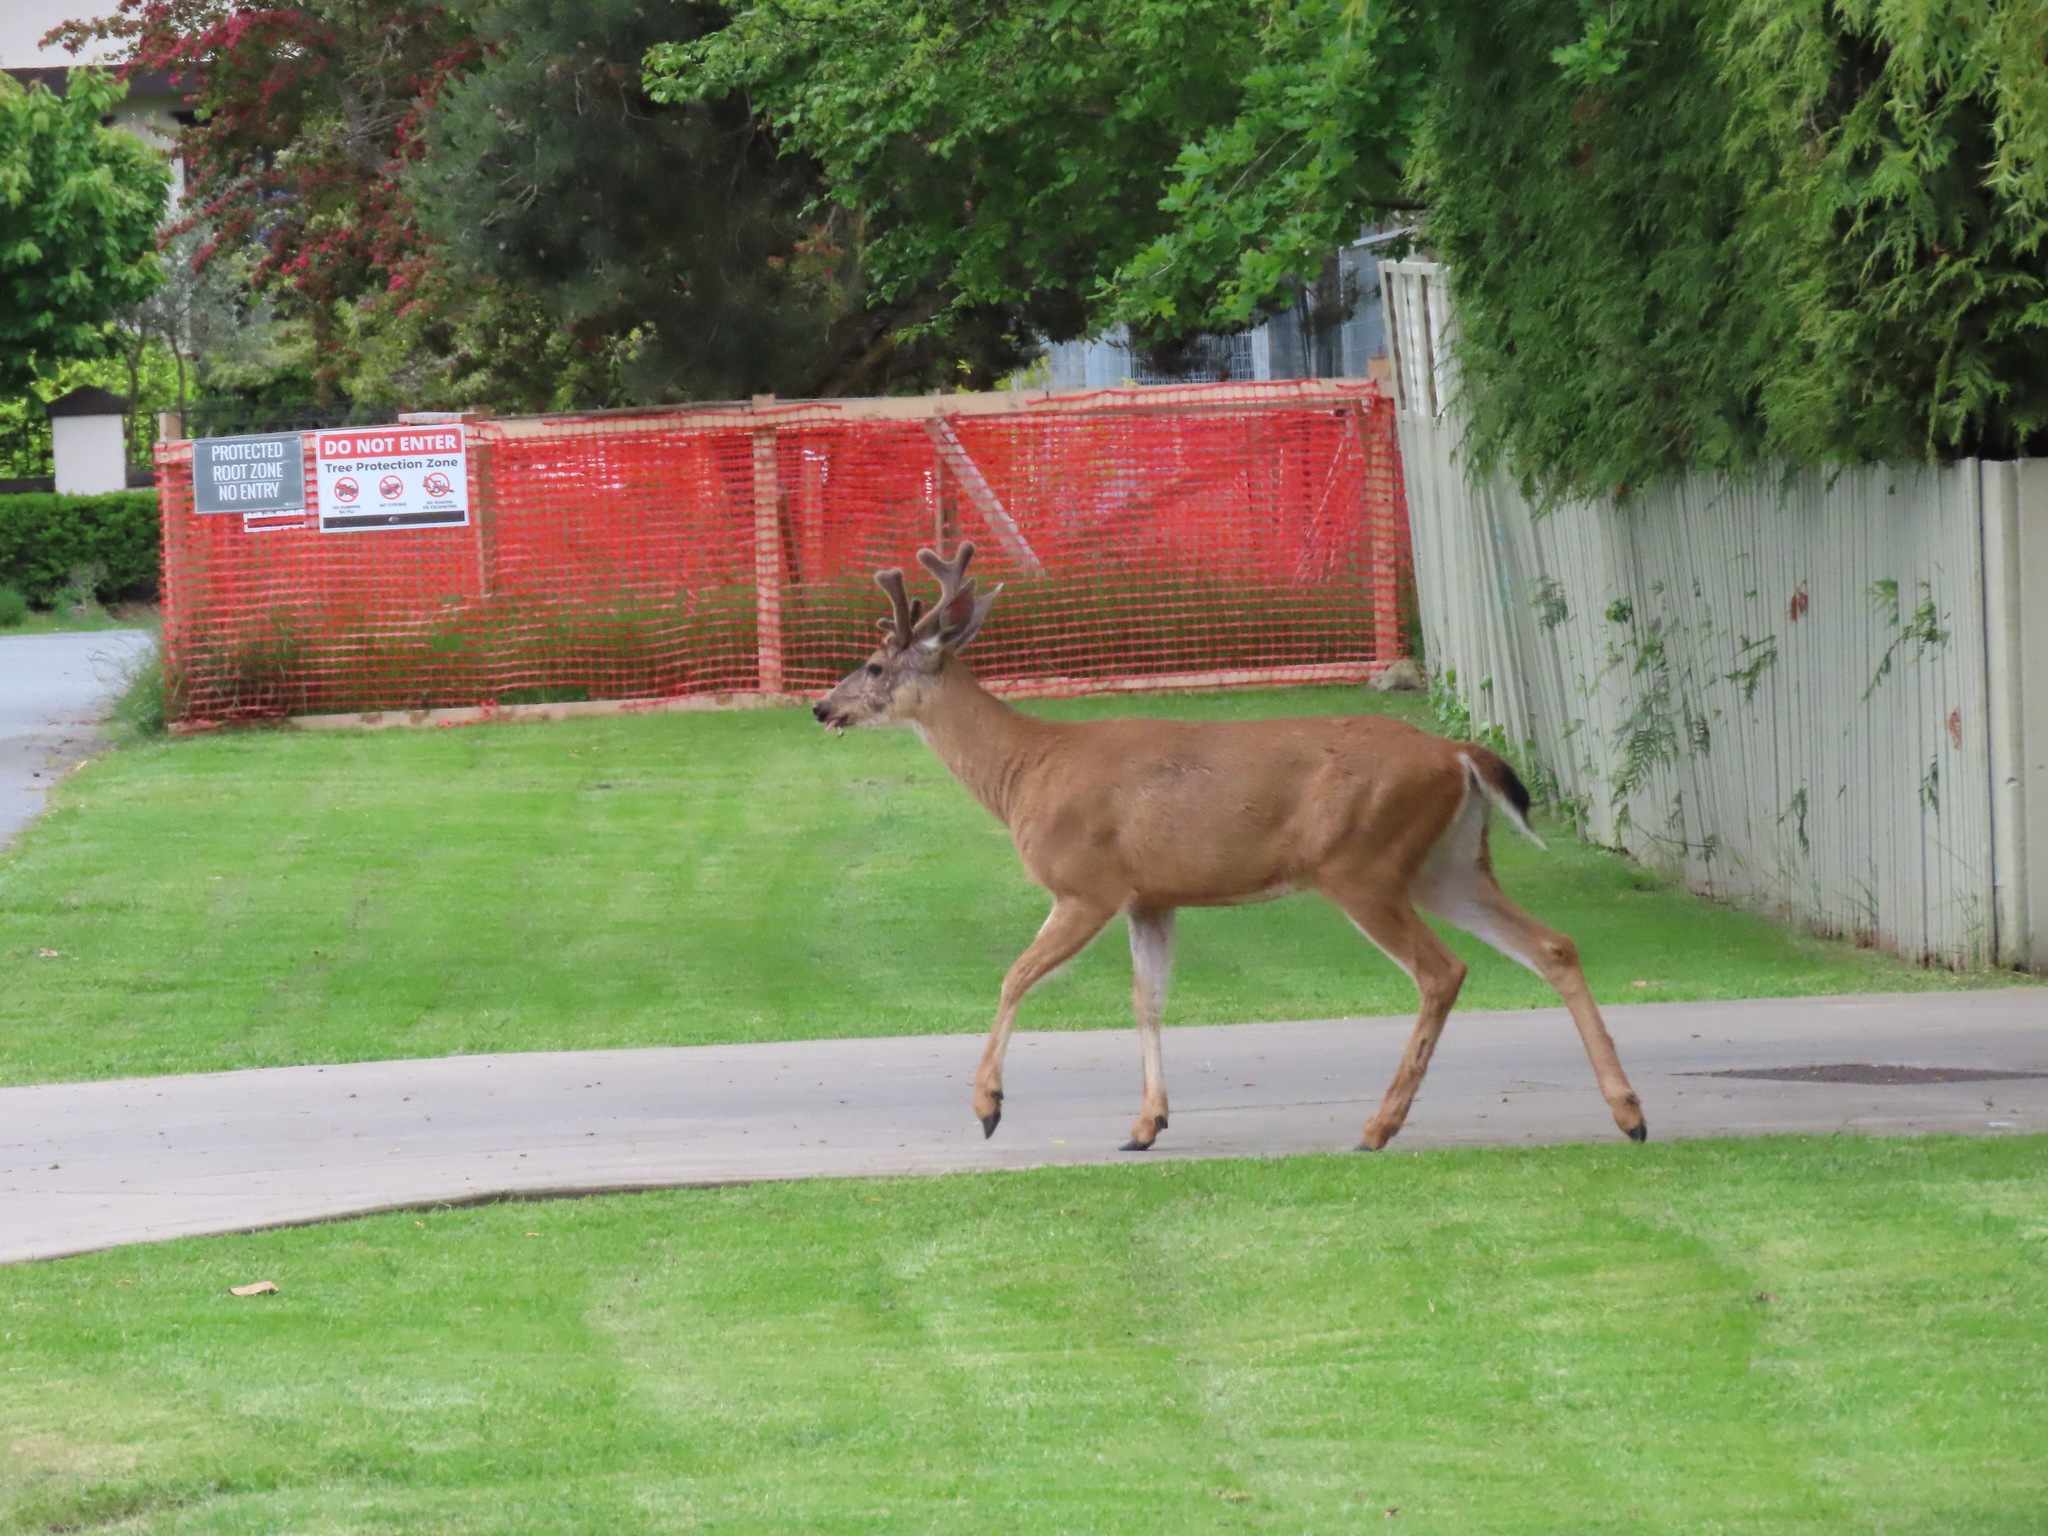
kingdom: Animalia
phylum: Chordata
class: Mammalia
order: Artiodactyla
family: Cervidae
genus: Odocoileus
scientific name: Odocoileus hemionus
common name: Mule deer
